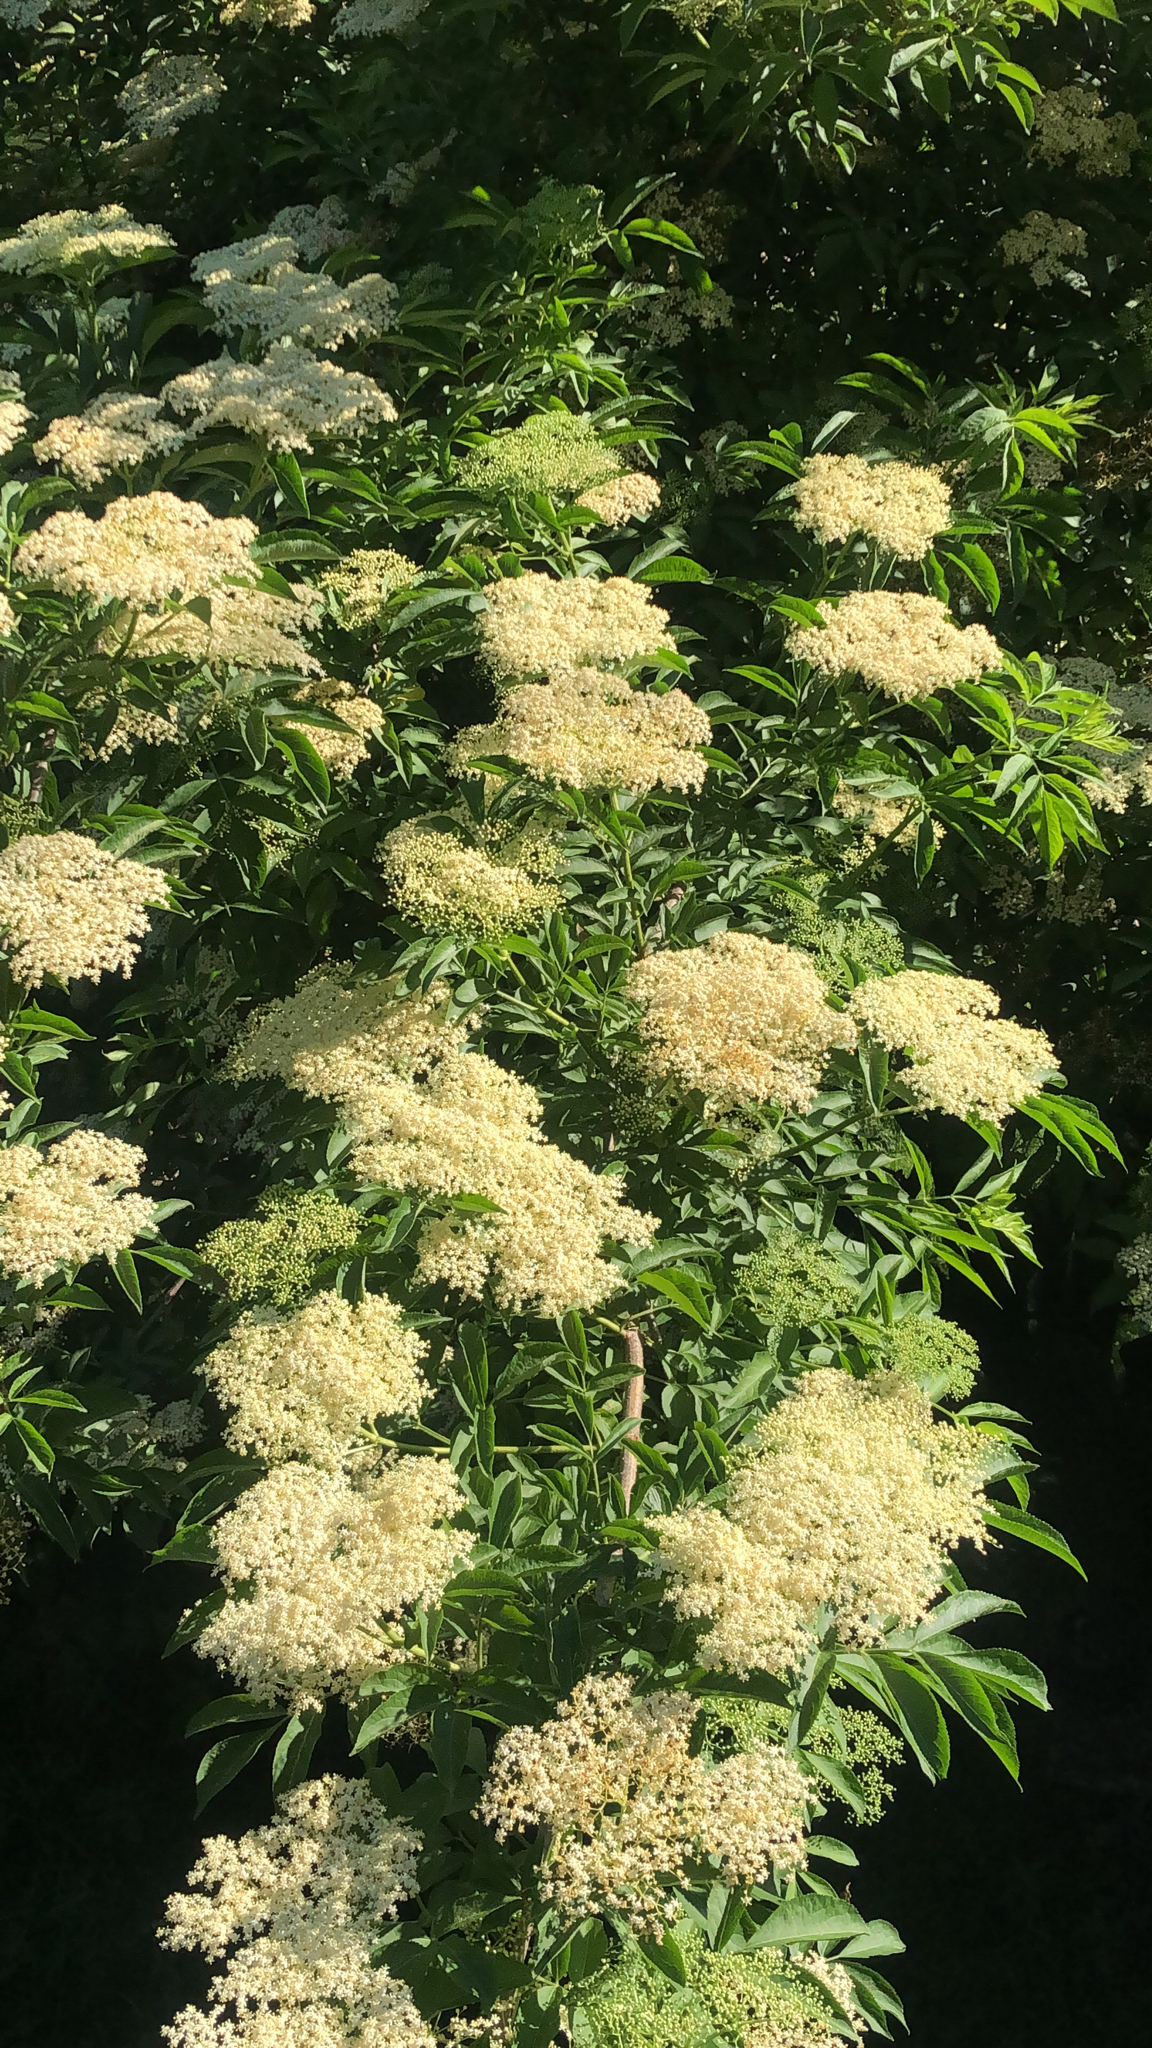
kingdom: Plantae
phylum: Tracheophyta
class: Magnoliopsida
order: Dipsacales
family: Viburnaceae
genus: Sambucus
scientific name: Sambucus nigra
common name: Elder
